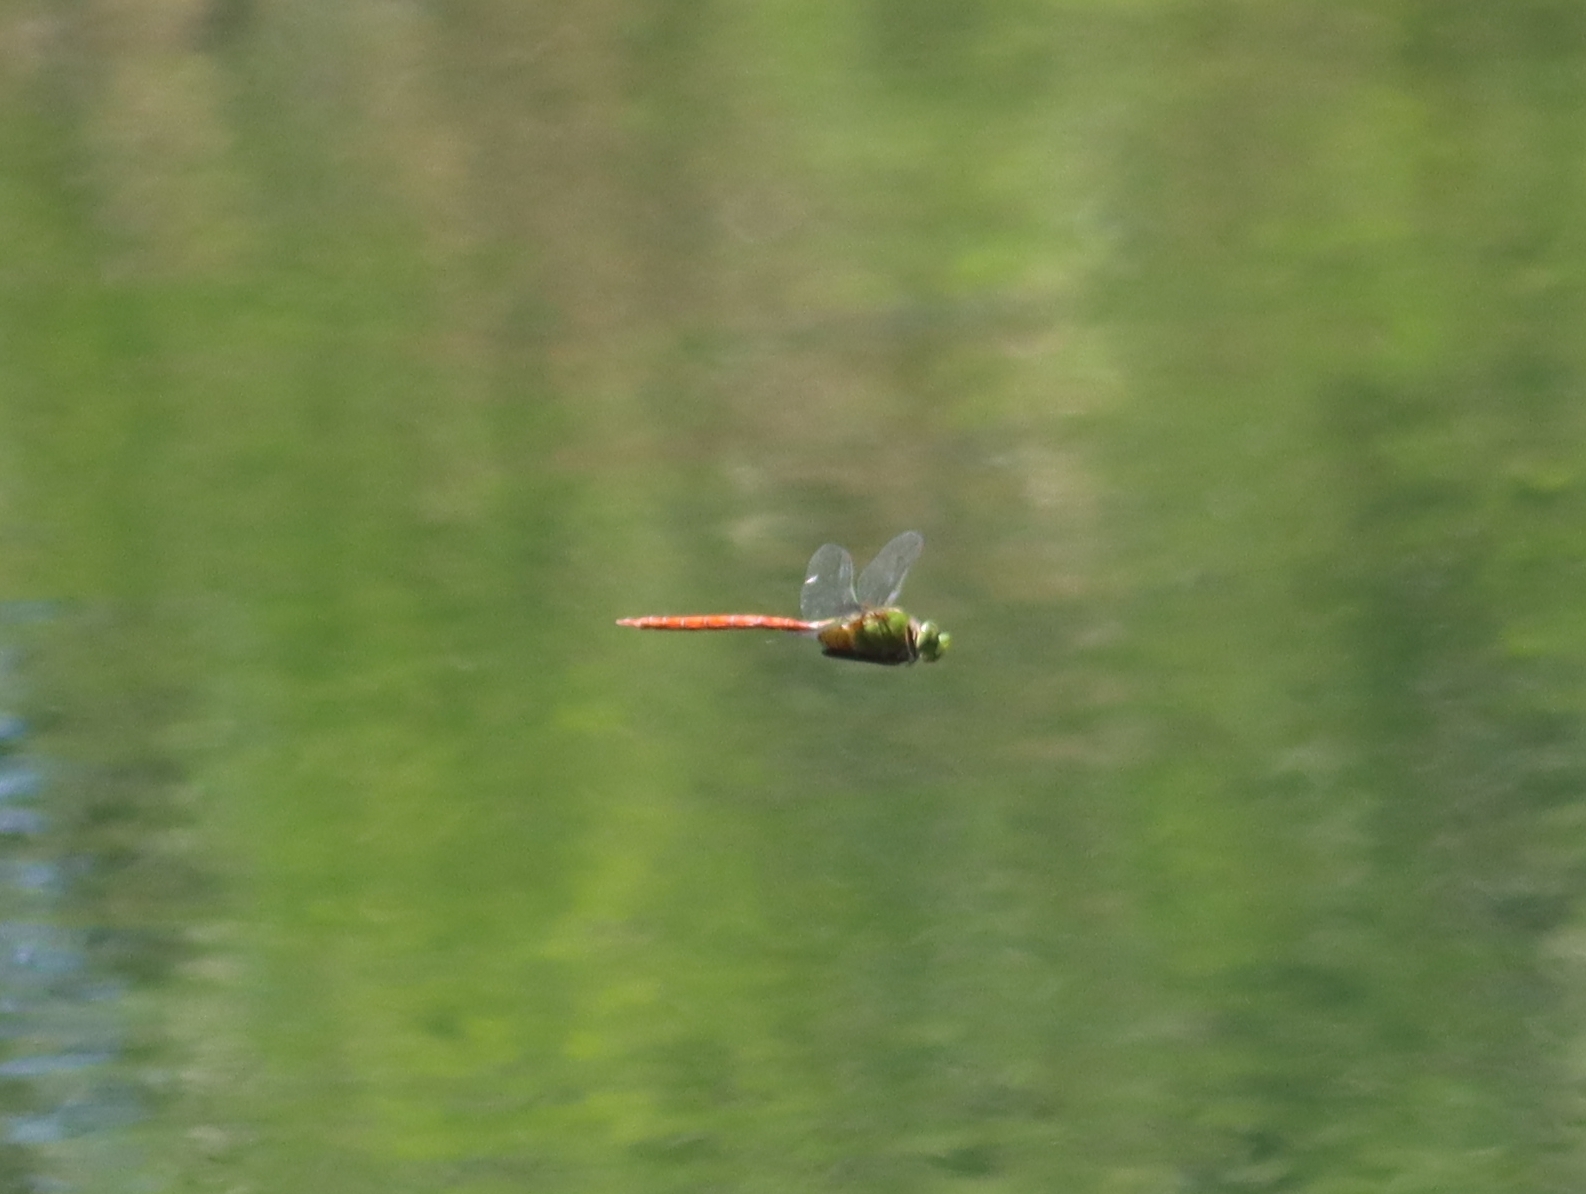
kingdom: Animalia
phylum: Arthropoda
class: Insecta
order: Odonata
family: Aeshnidae
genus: Anax
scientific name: Anax longipes
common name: Comet darner
